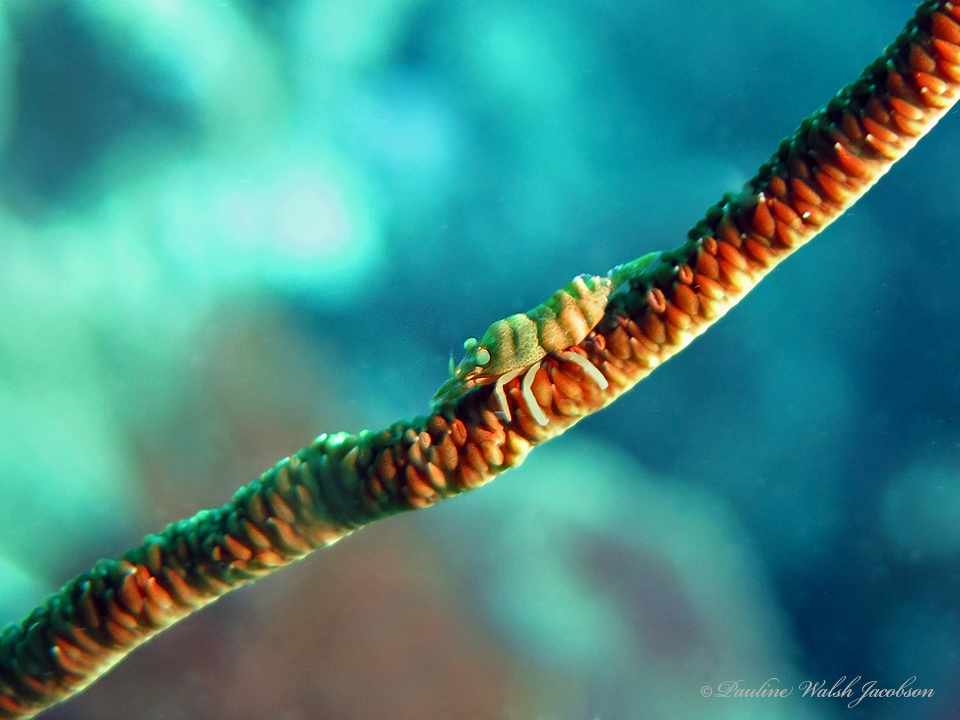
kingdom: Animalia
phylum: Arthropoda
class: Malacostraca
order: Decapoda
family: Palaemonidae
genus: Pontonides
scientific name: Pontonides unciger
